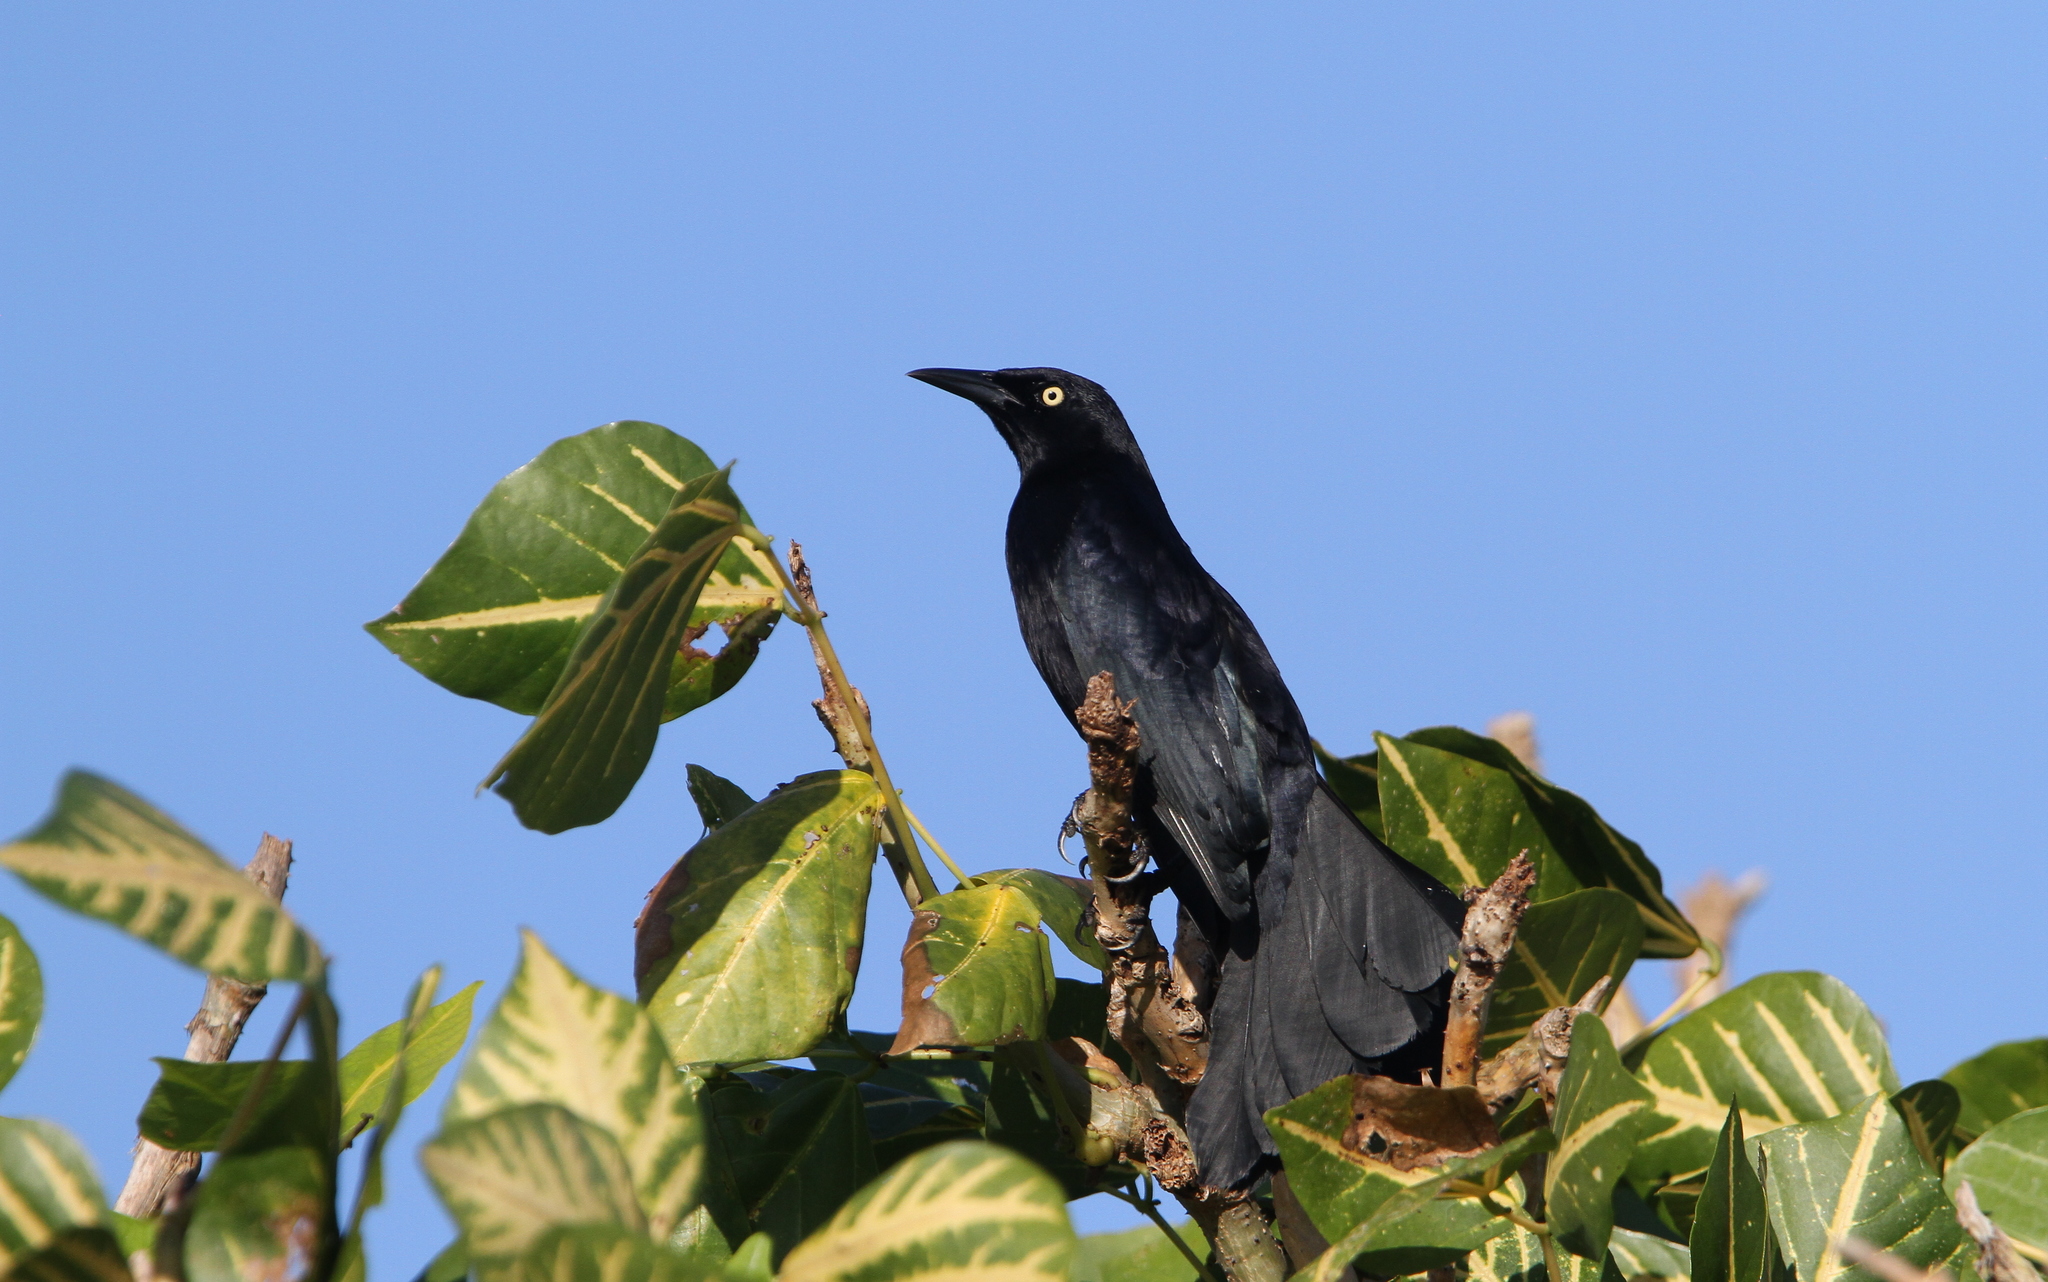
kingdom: Animalia
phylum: Chordata
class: Aves
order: Passeriformes
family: Icteridae
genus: Quiscalus
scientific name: Quiscalus niger
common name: Greater antillean grackle
